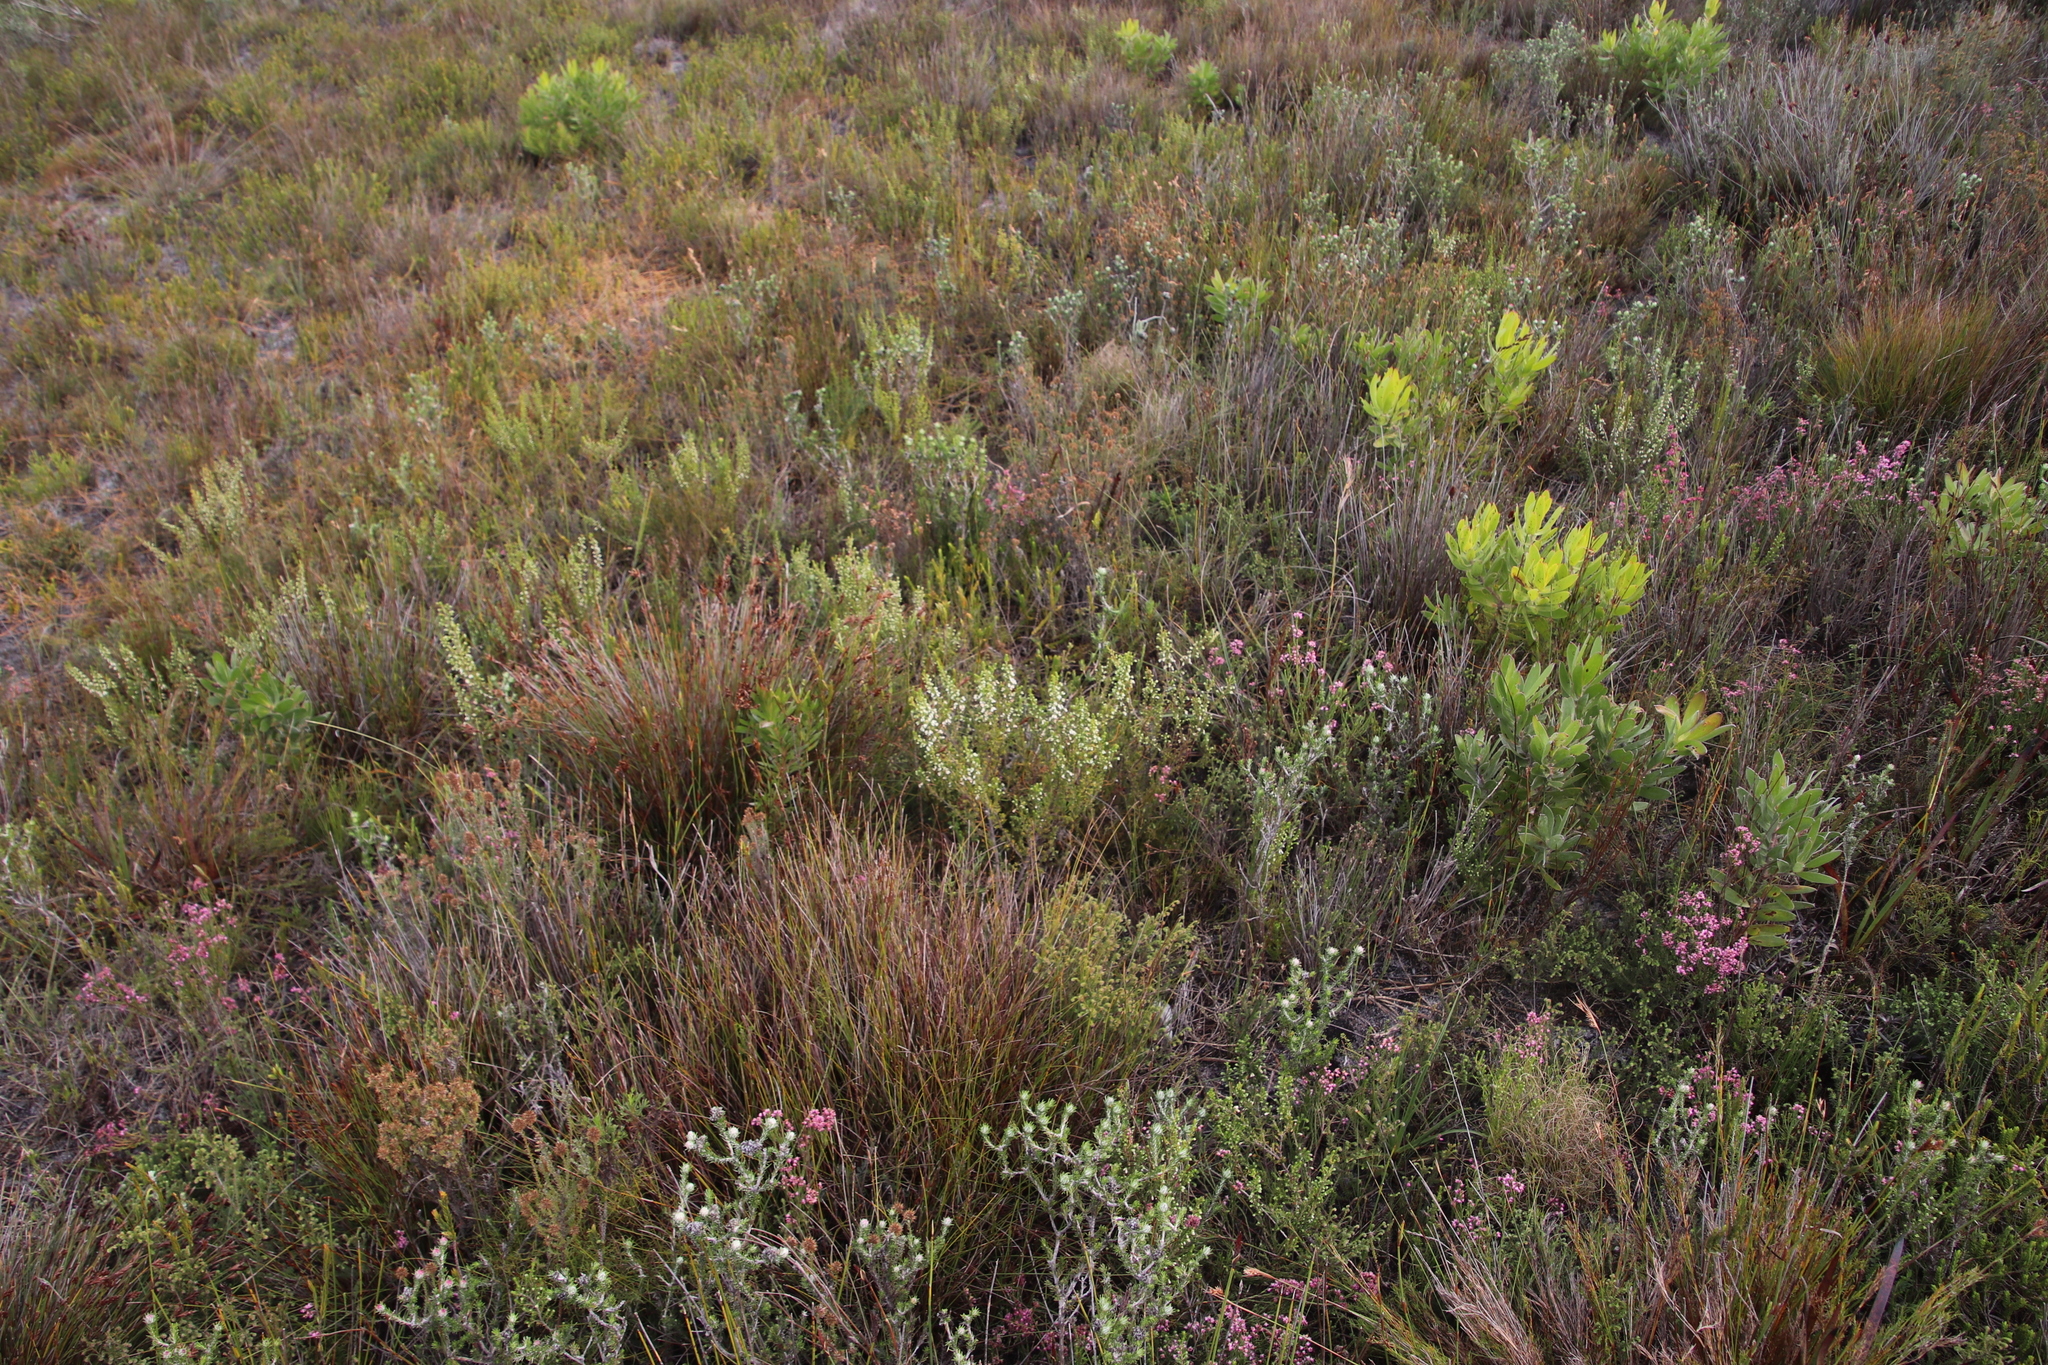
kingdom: Plantae
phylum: Tracheophyta
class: Magnoliopsida
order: Ericales
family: Ericaceae
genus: Erica
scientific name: Erica imbricata
